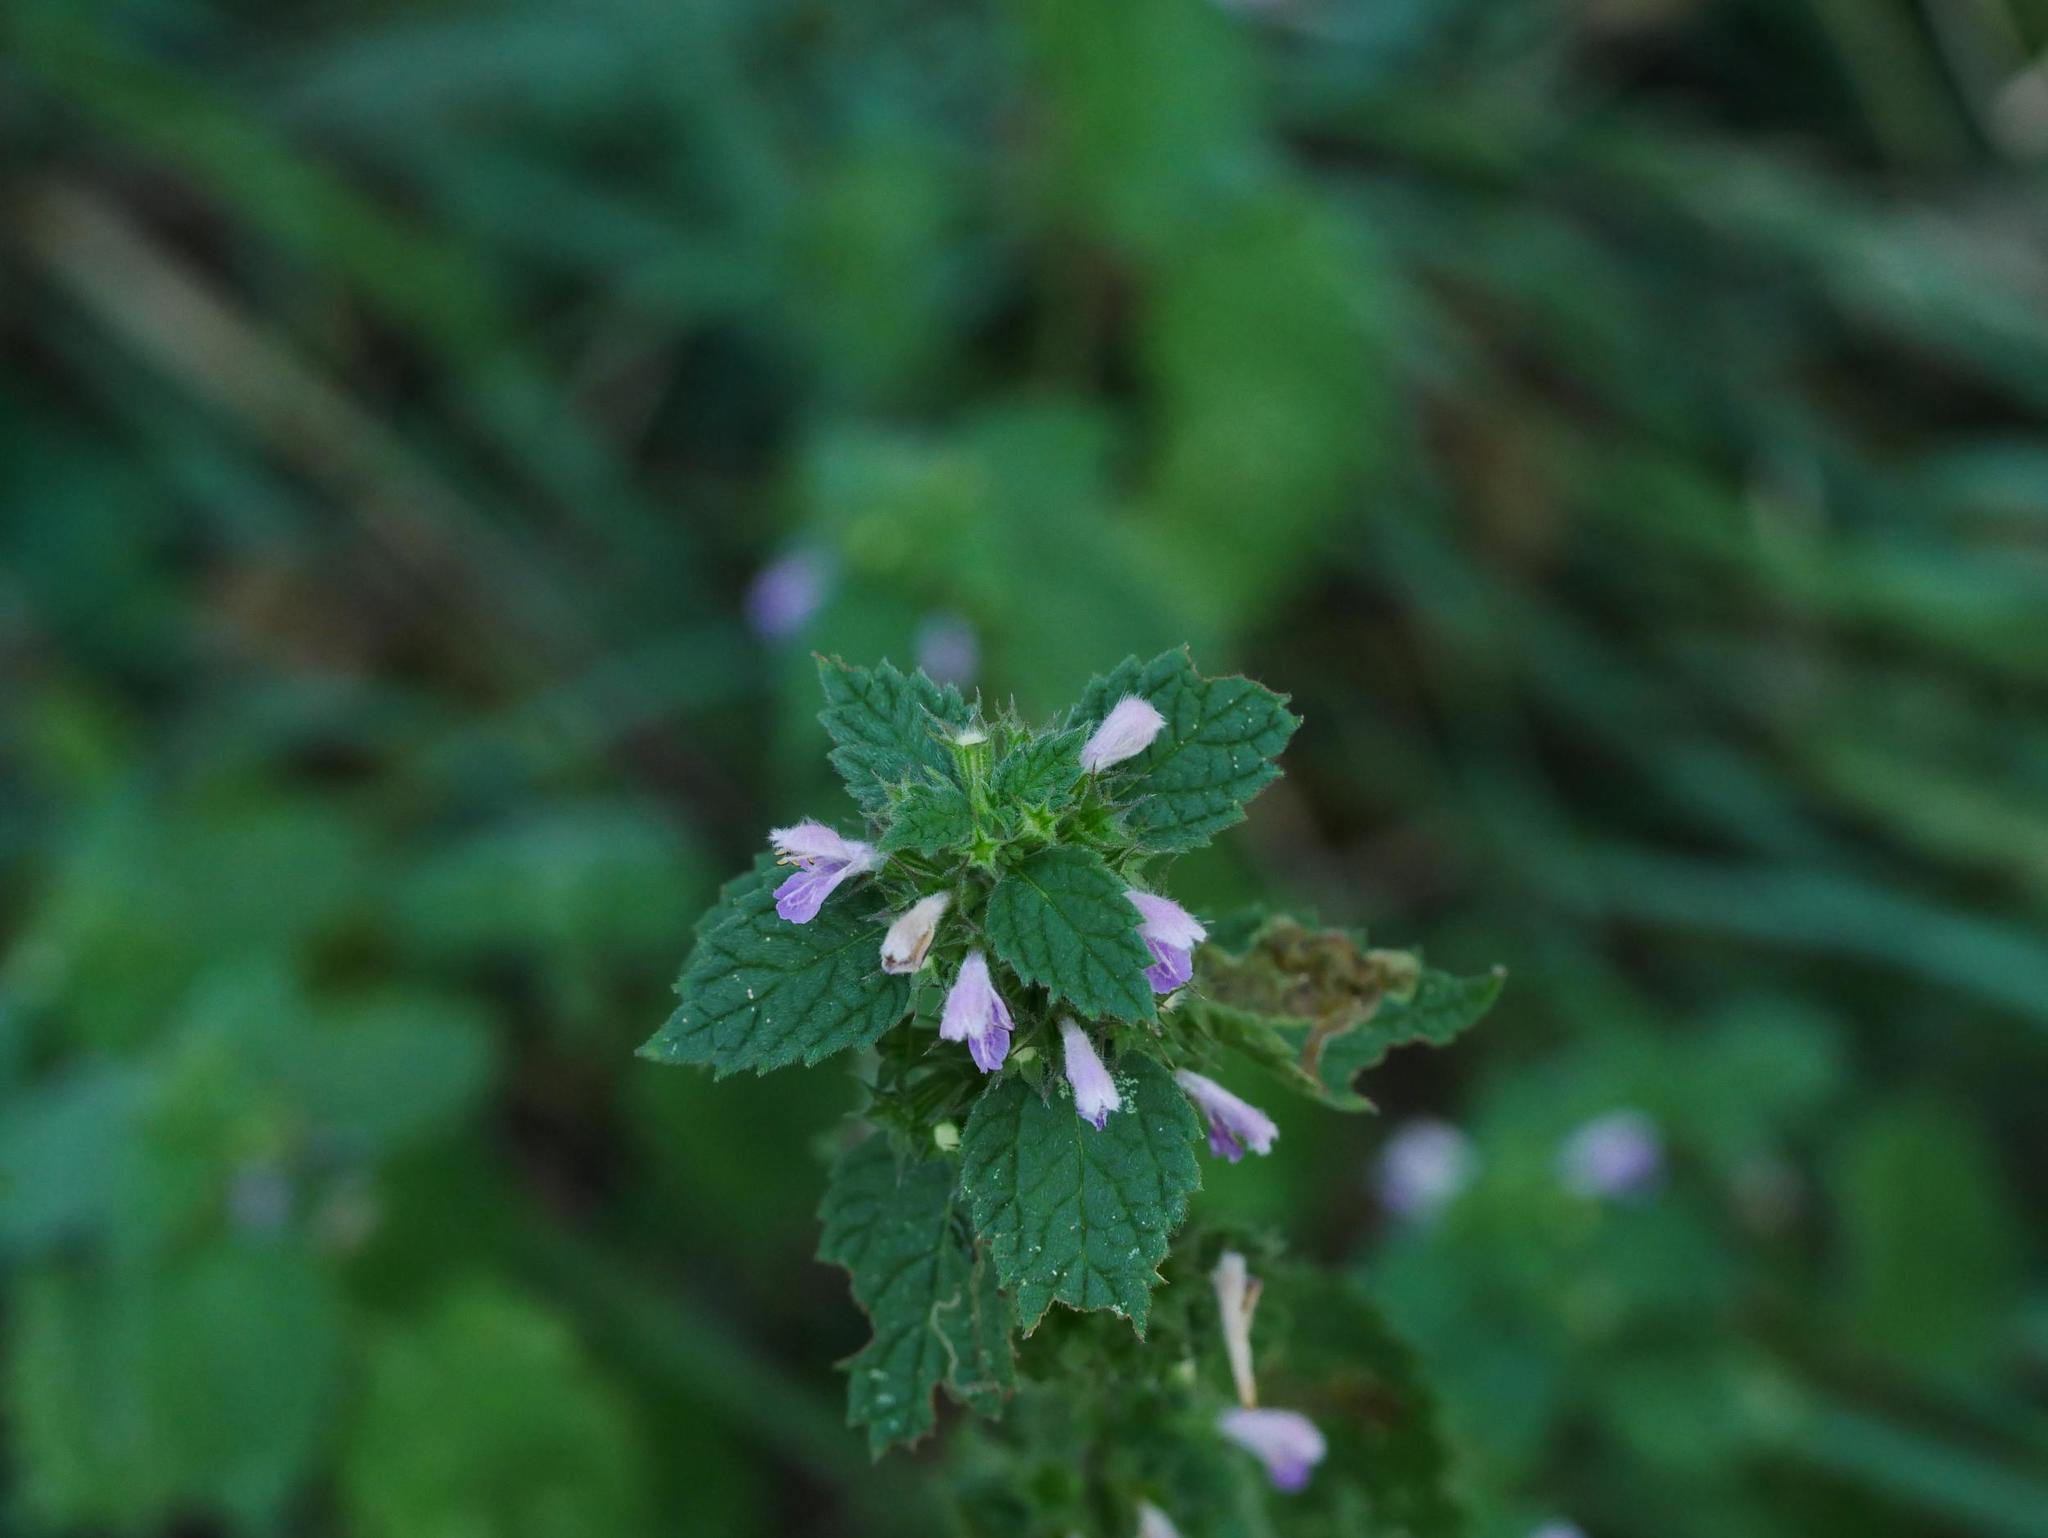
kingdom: Plantae
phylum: Tracheophyta
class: Magnoliopsida
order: Lamiales
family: Lamiaceae
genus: Ballota
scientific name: Ballota nigra
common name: Black horehound
